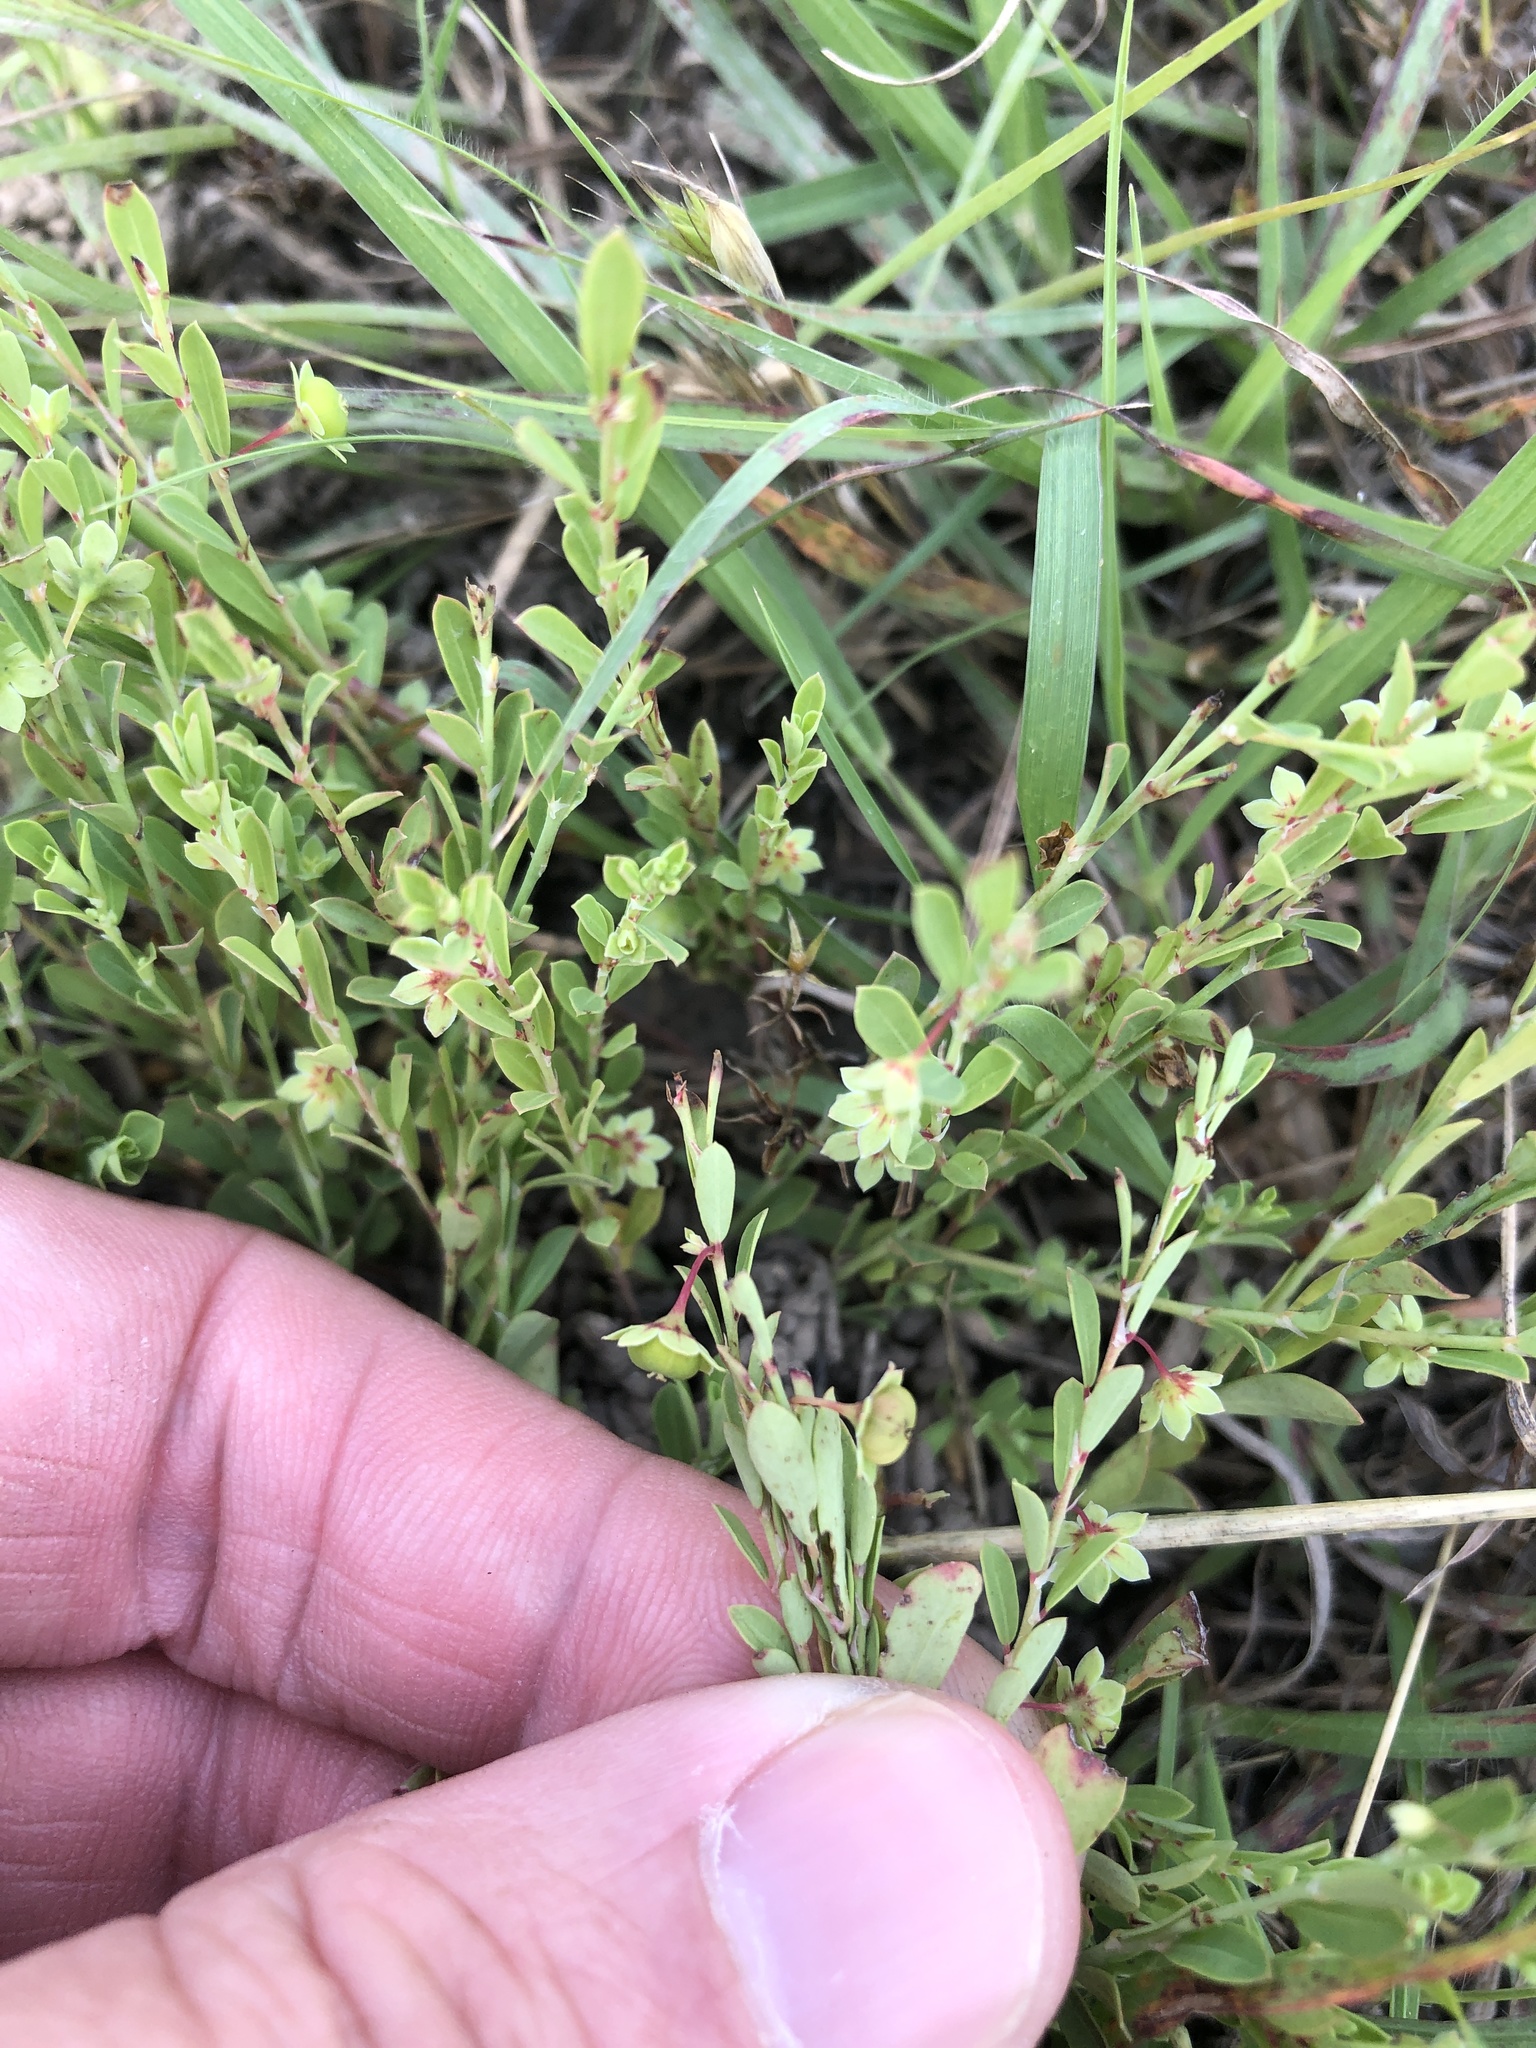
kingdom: Plantae
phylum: Tracheophyta
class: Magnoliopsida
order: Malpighiales
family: Phyllanthaceae
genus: Phyllanthus
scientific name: Phyllanthus polygonoides
